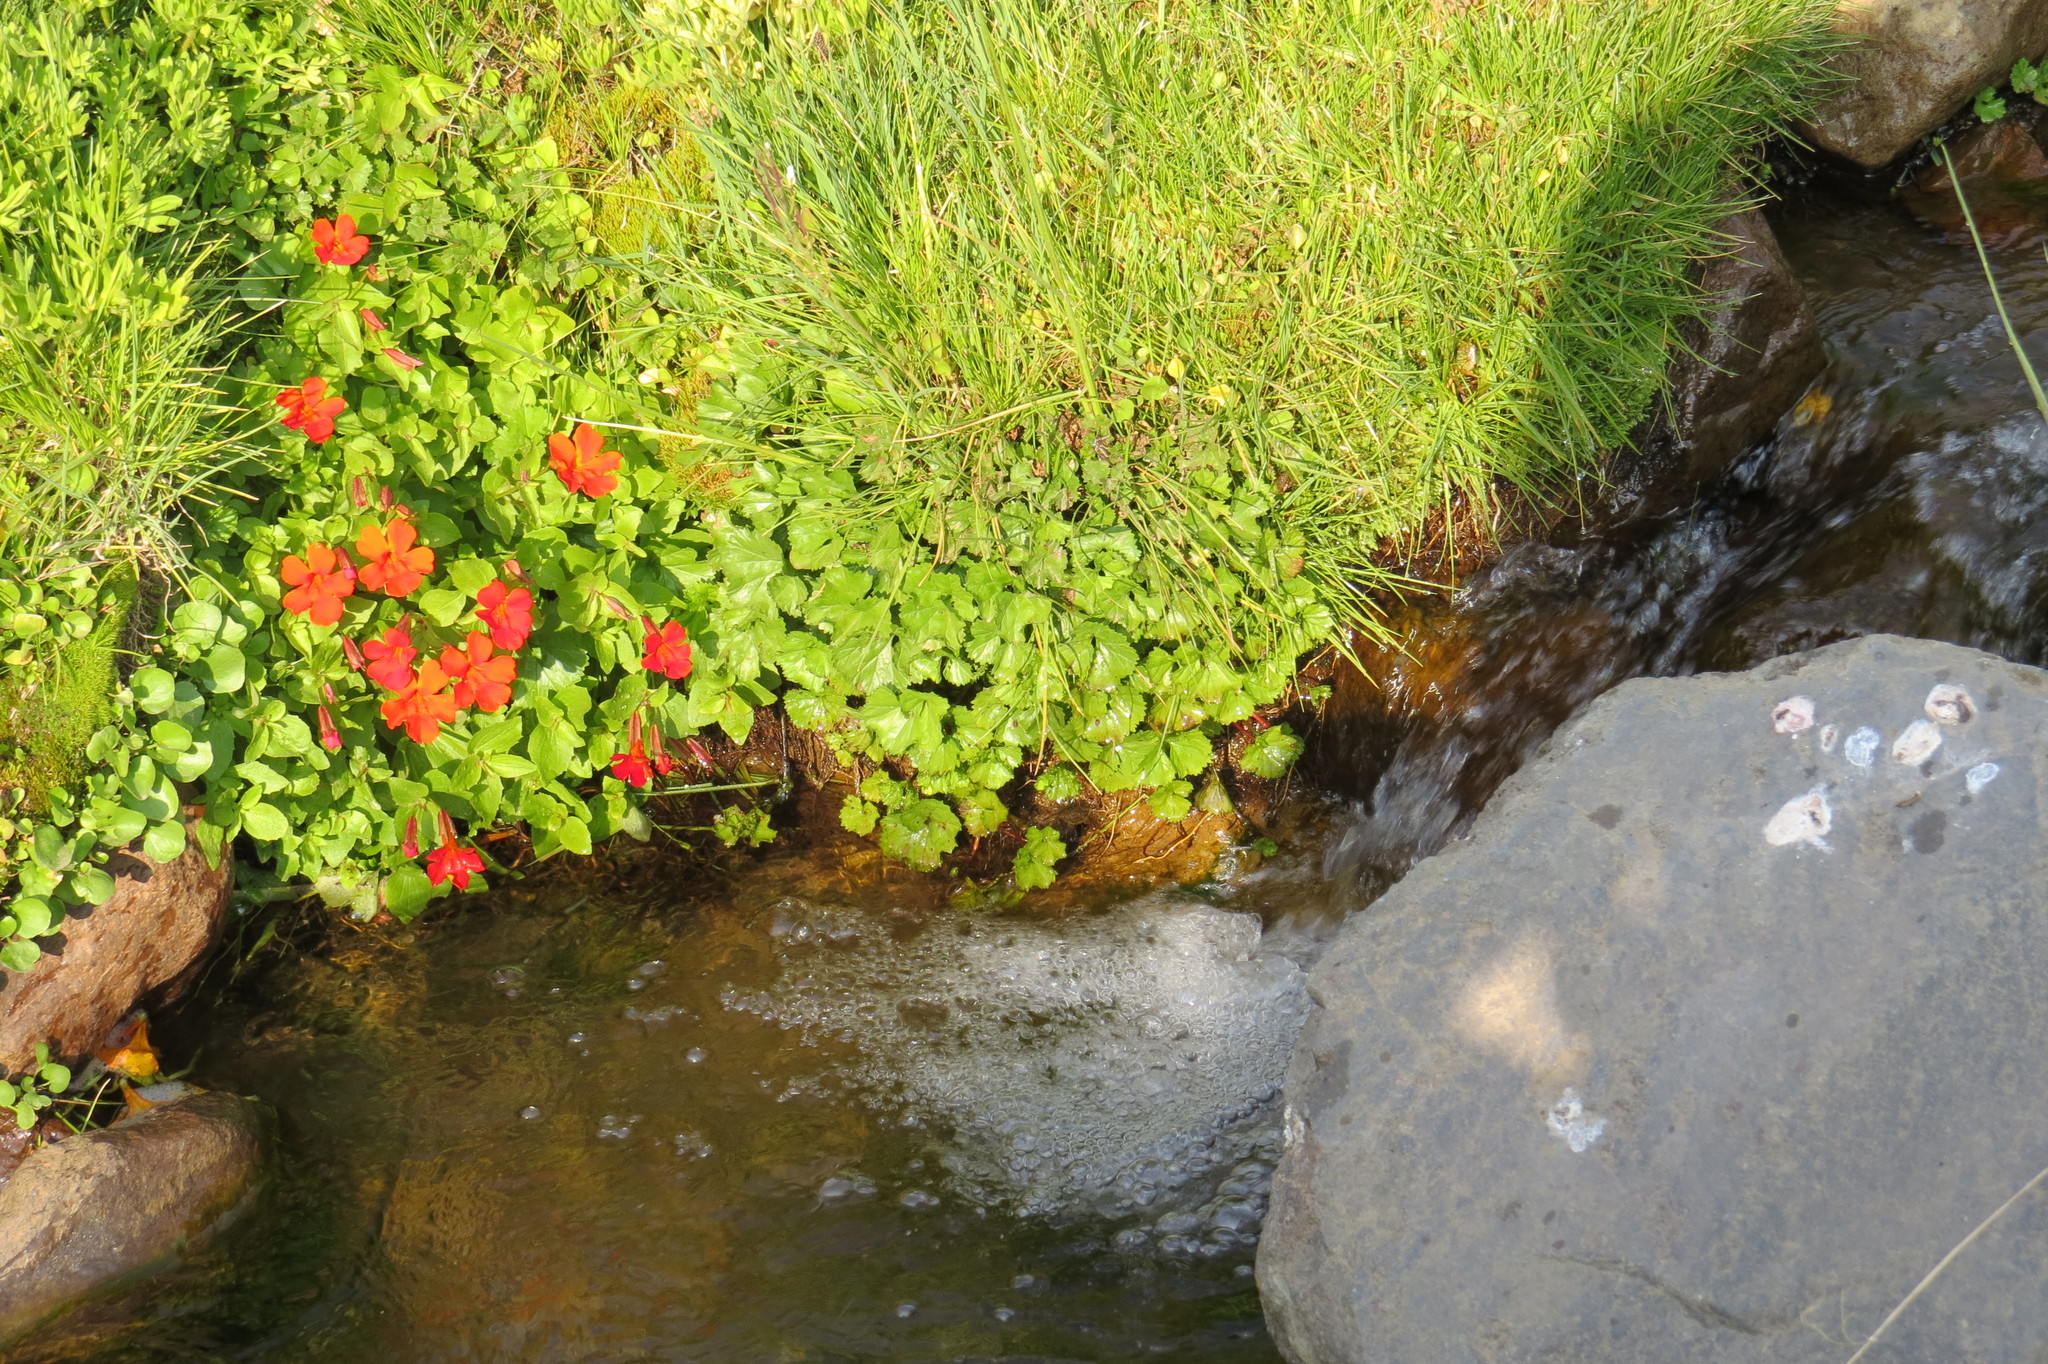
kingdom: Plantae
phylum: Tracheophyta
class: Magnoliopsida
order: Lamiales
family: Phrymaceae
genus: Erythranthe
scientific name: Erythranthe cuprea
